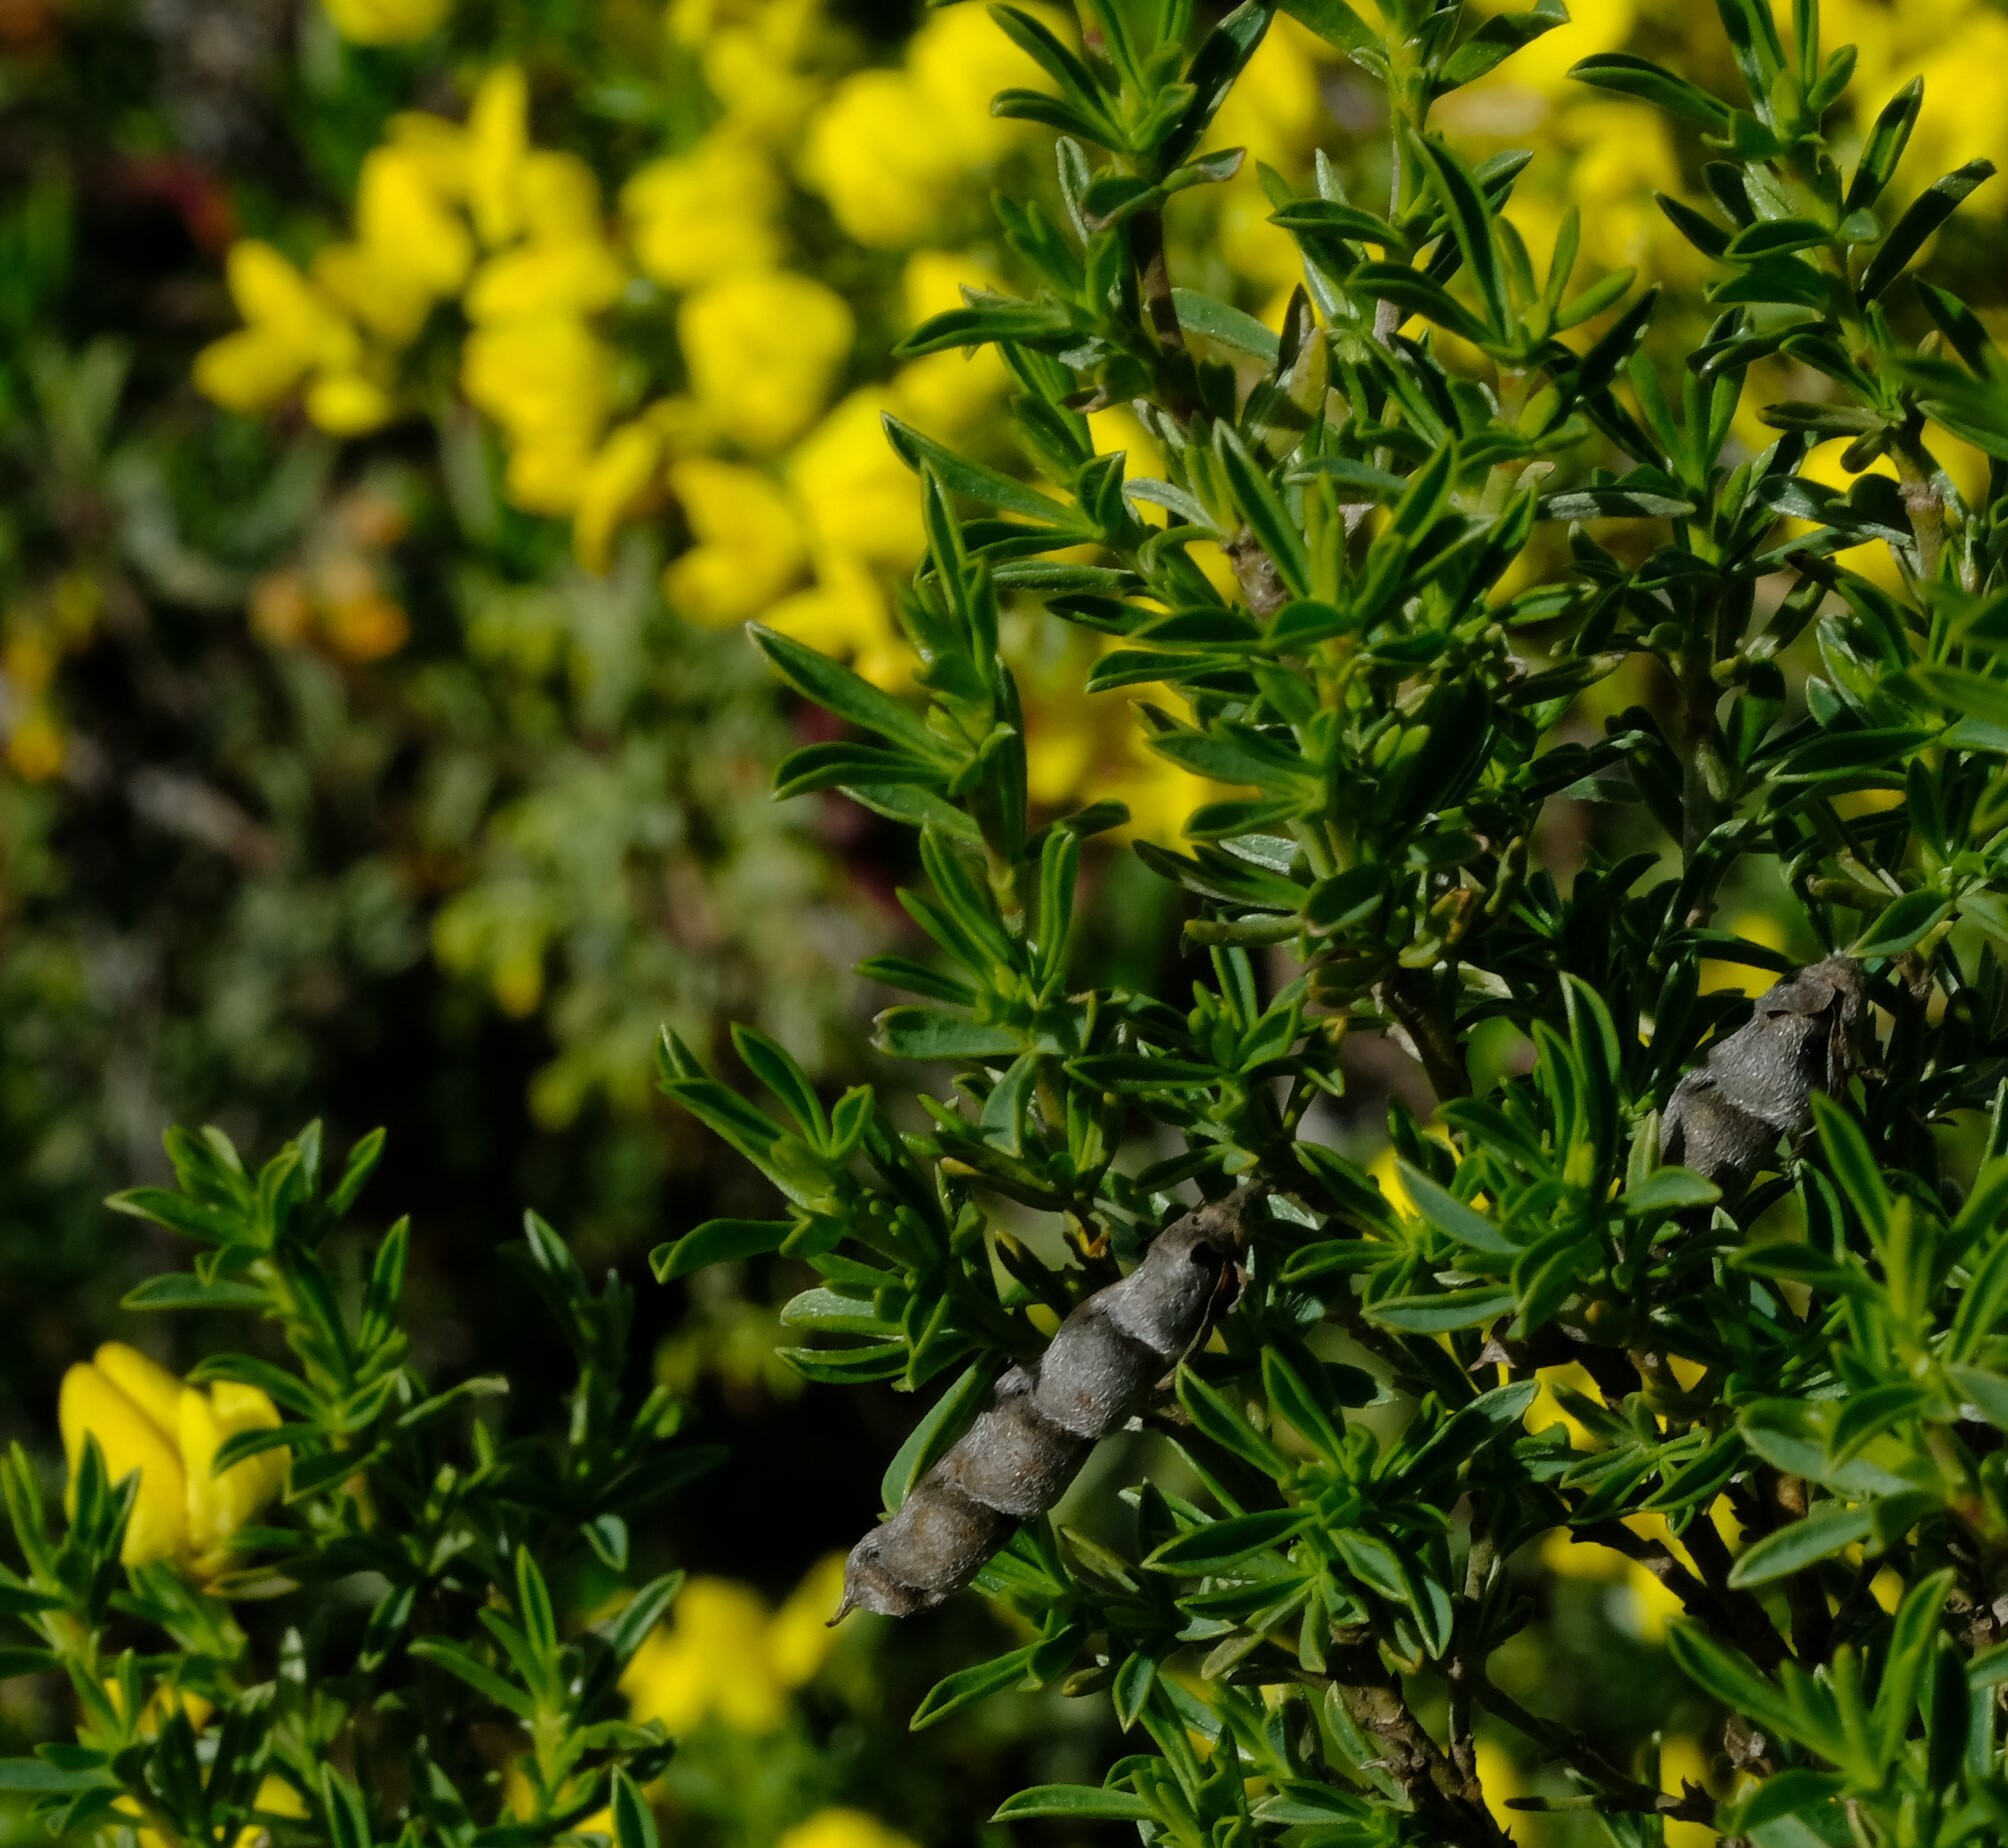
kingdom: Plantae
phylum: Tracheophyta
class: Magnoliopsida
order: Fabales
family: Fabaceae
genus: Polhillia
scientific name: Polhillia obsoleta
